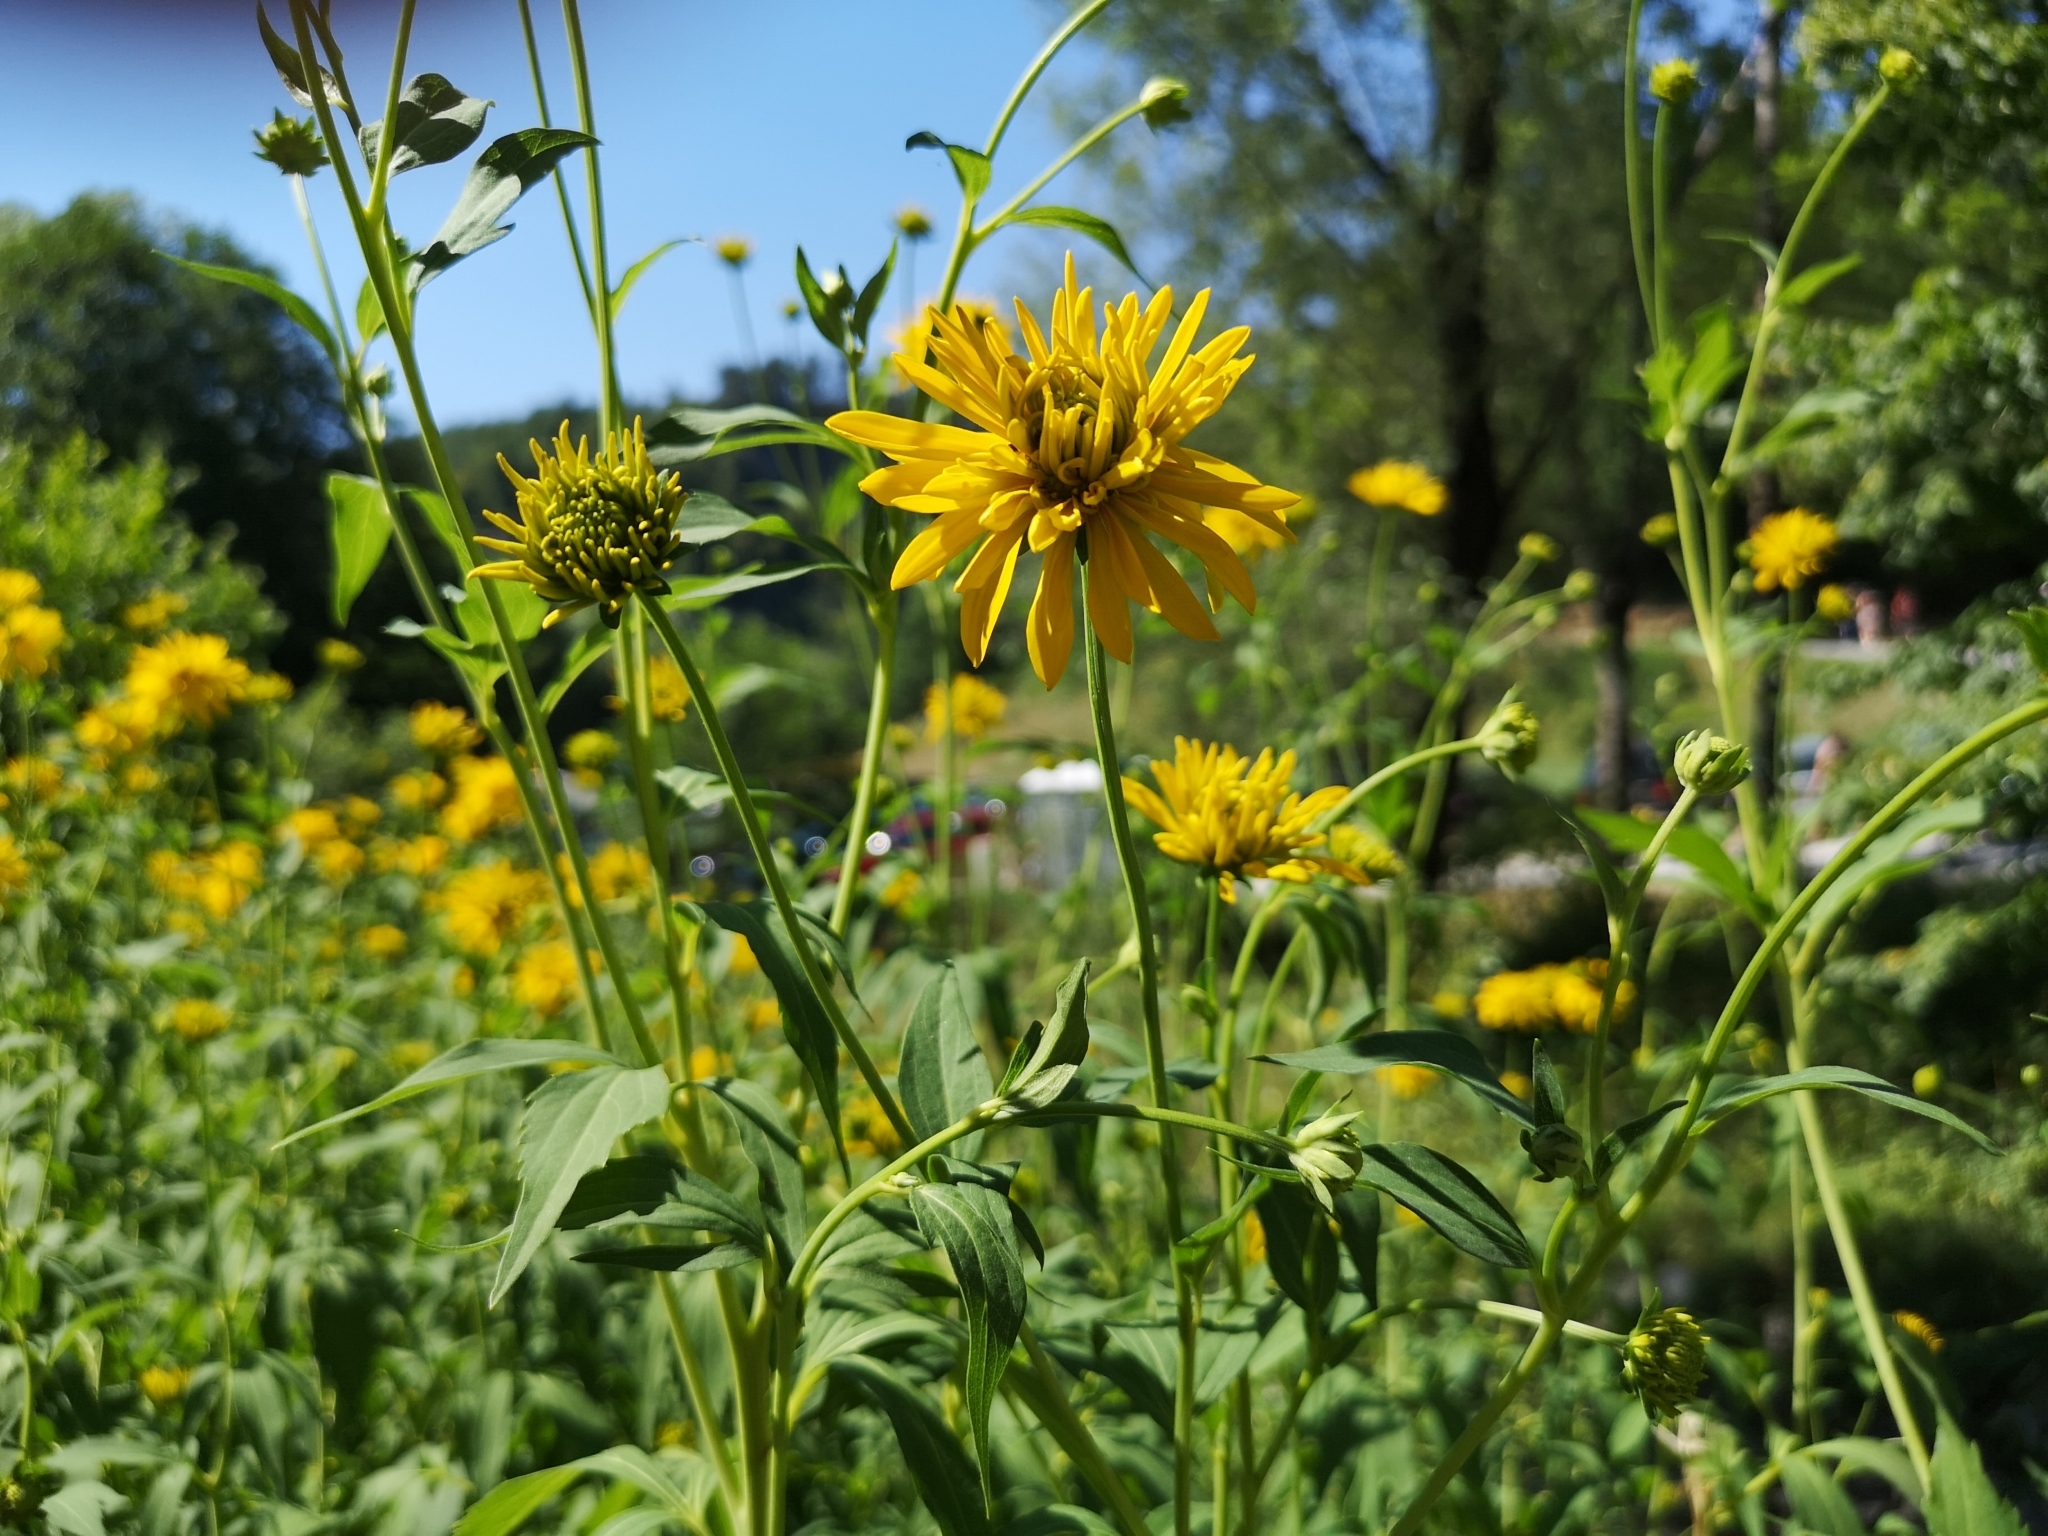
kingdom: Plantae
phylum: Tracheophyta
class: Magnoliopsida
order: Asterales
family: Asteraceae
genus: Rudbeckia
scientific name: Rudbeckia laciniata
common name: Coneflower
